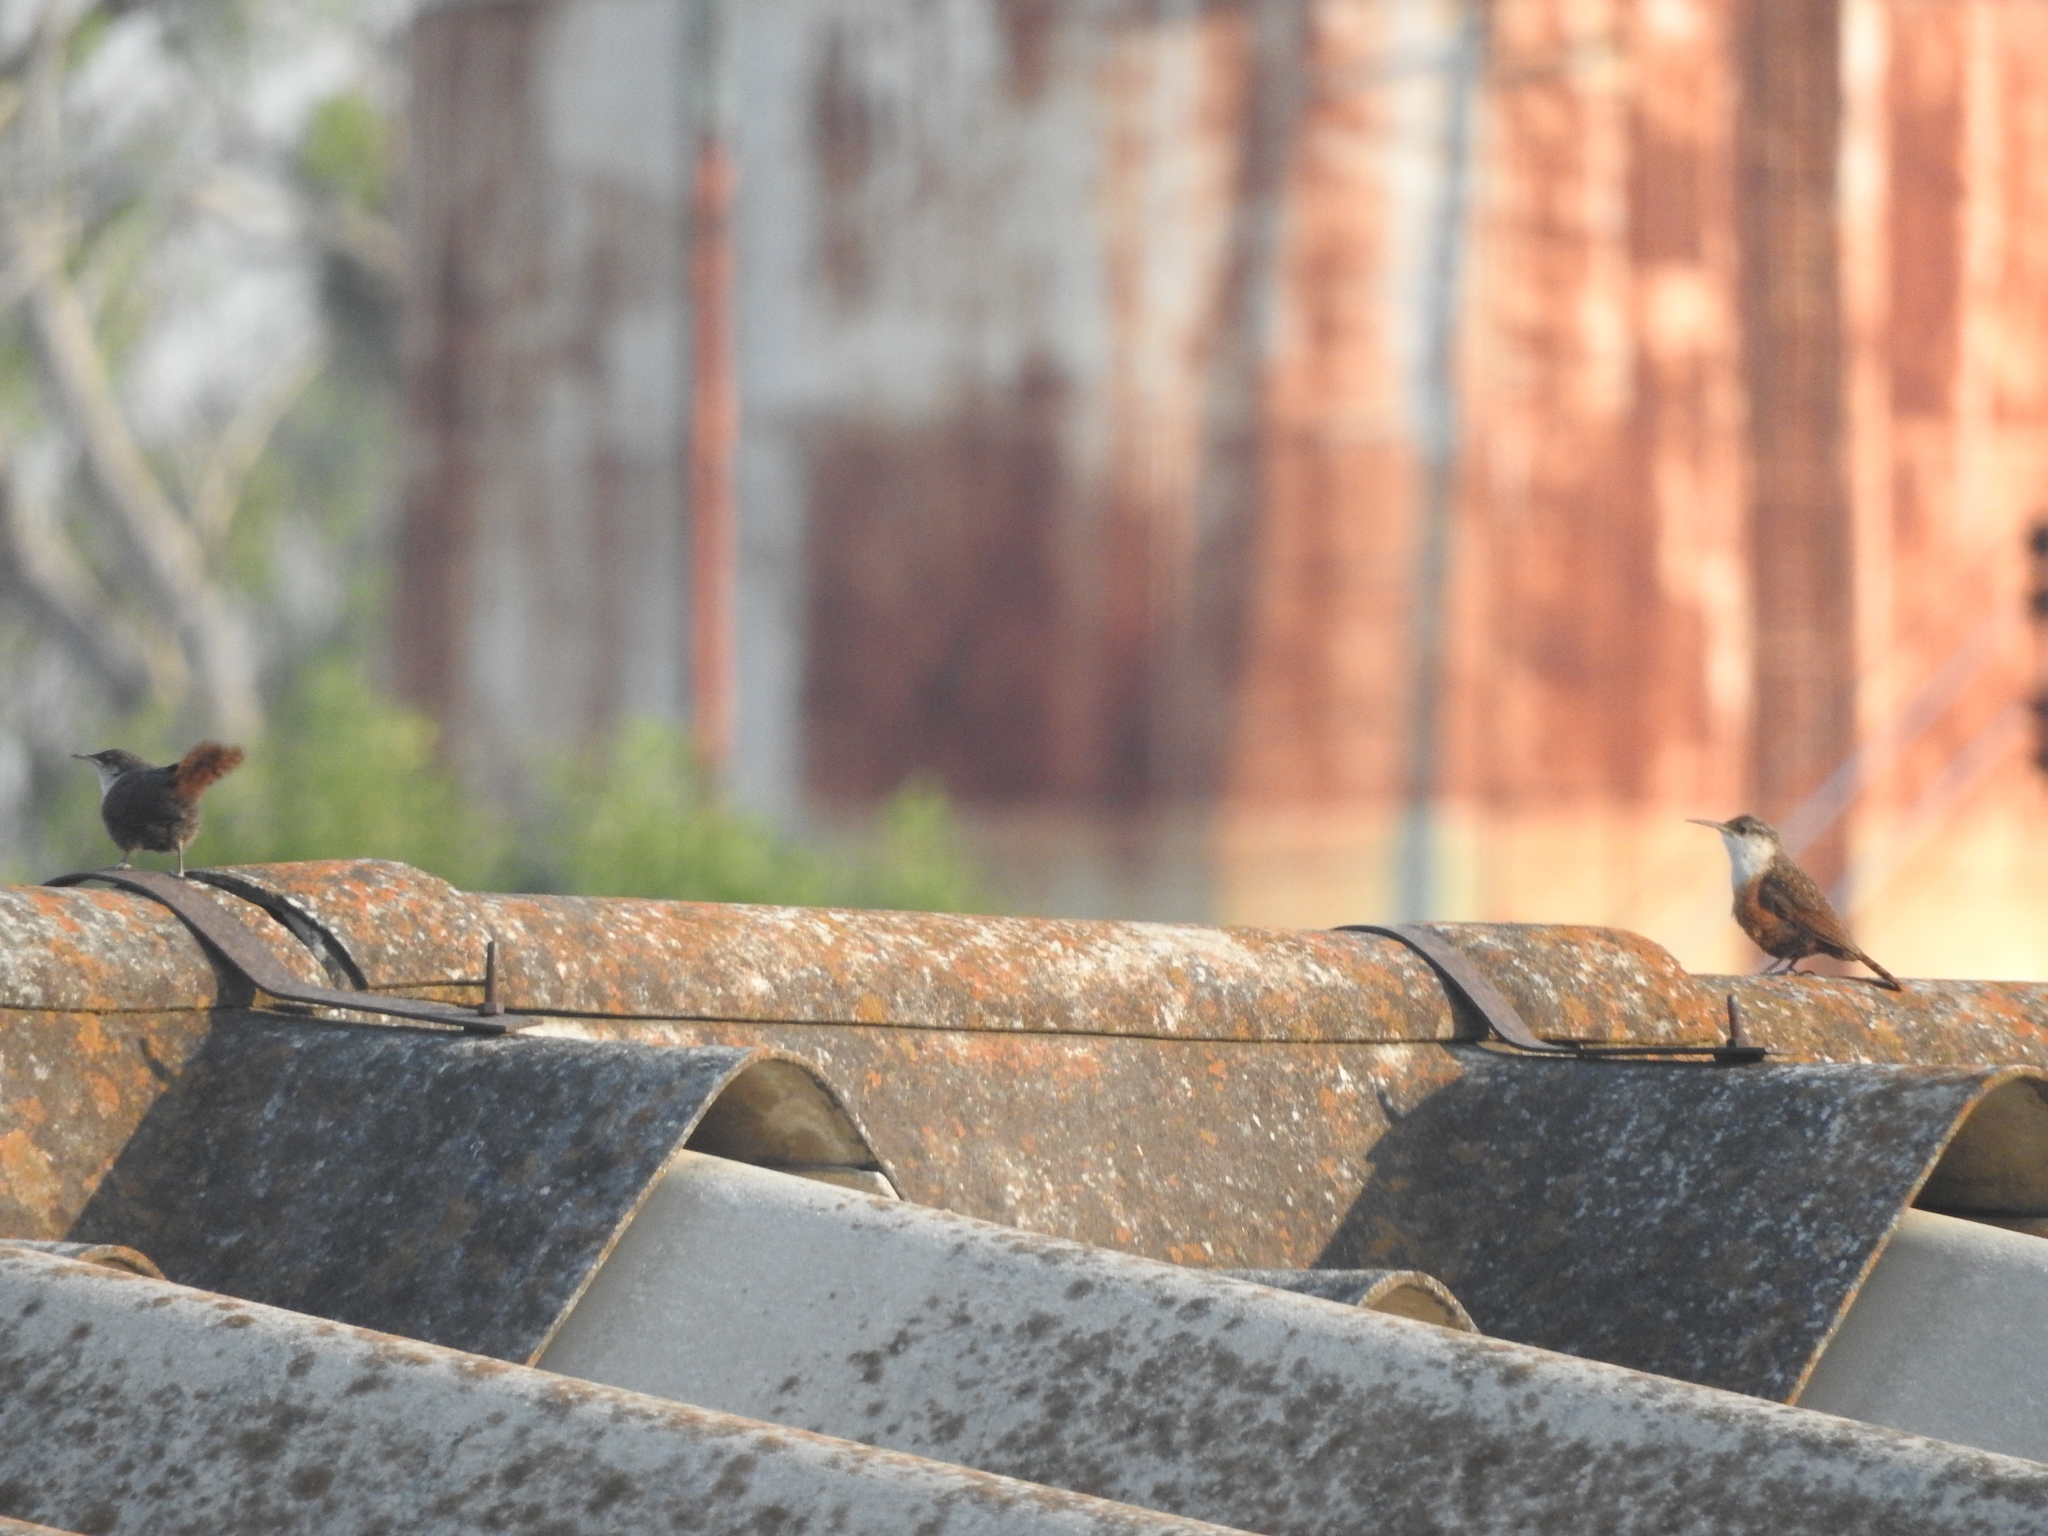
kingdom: Animalia
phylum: Chordata
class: Aves
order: Passeriformes
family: Troglodytidae
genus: Catherpes
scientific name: Catherpes mexicanus
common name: Canyon wren
